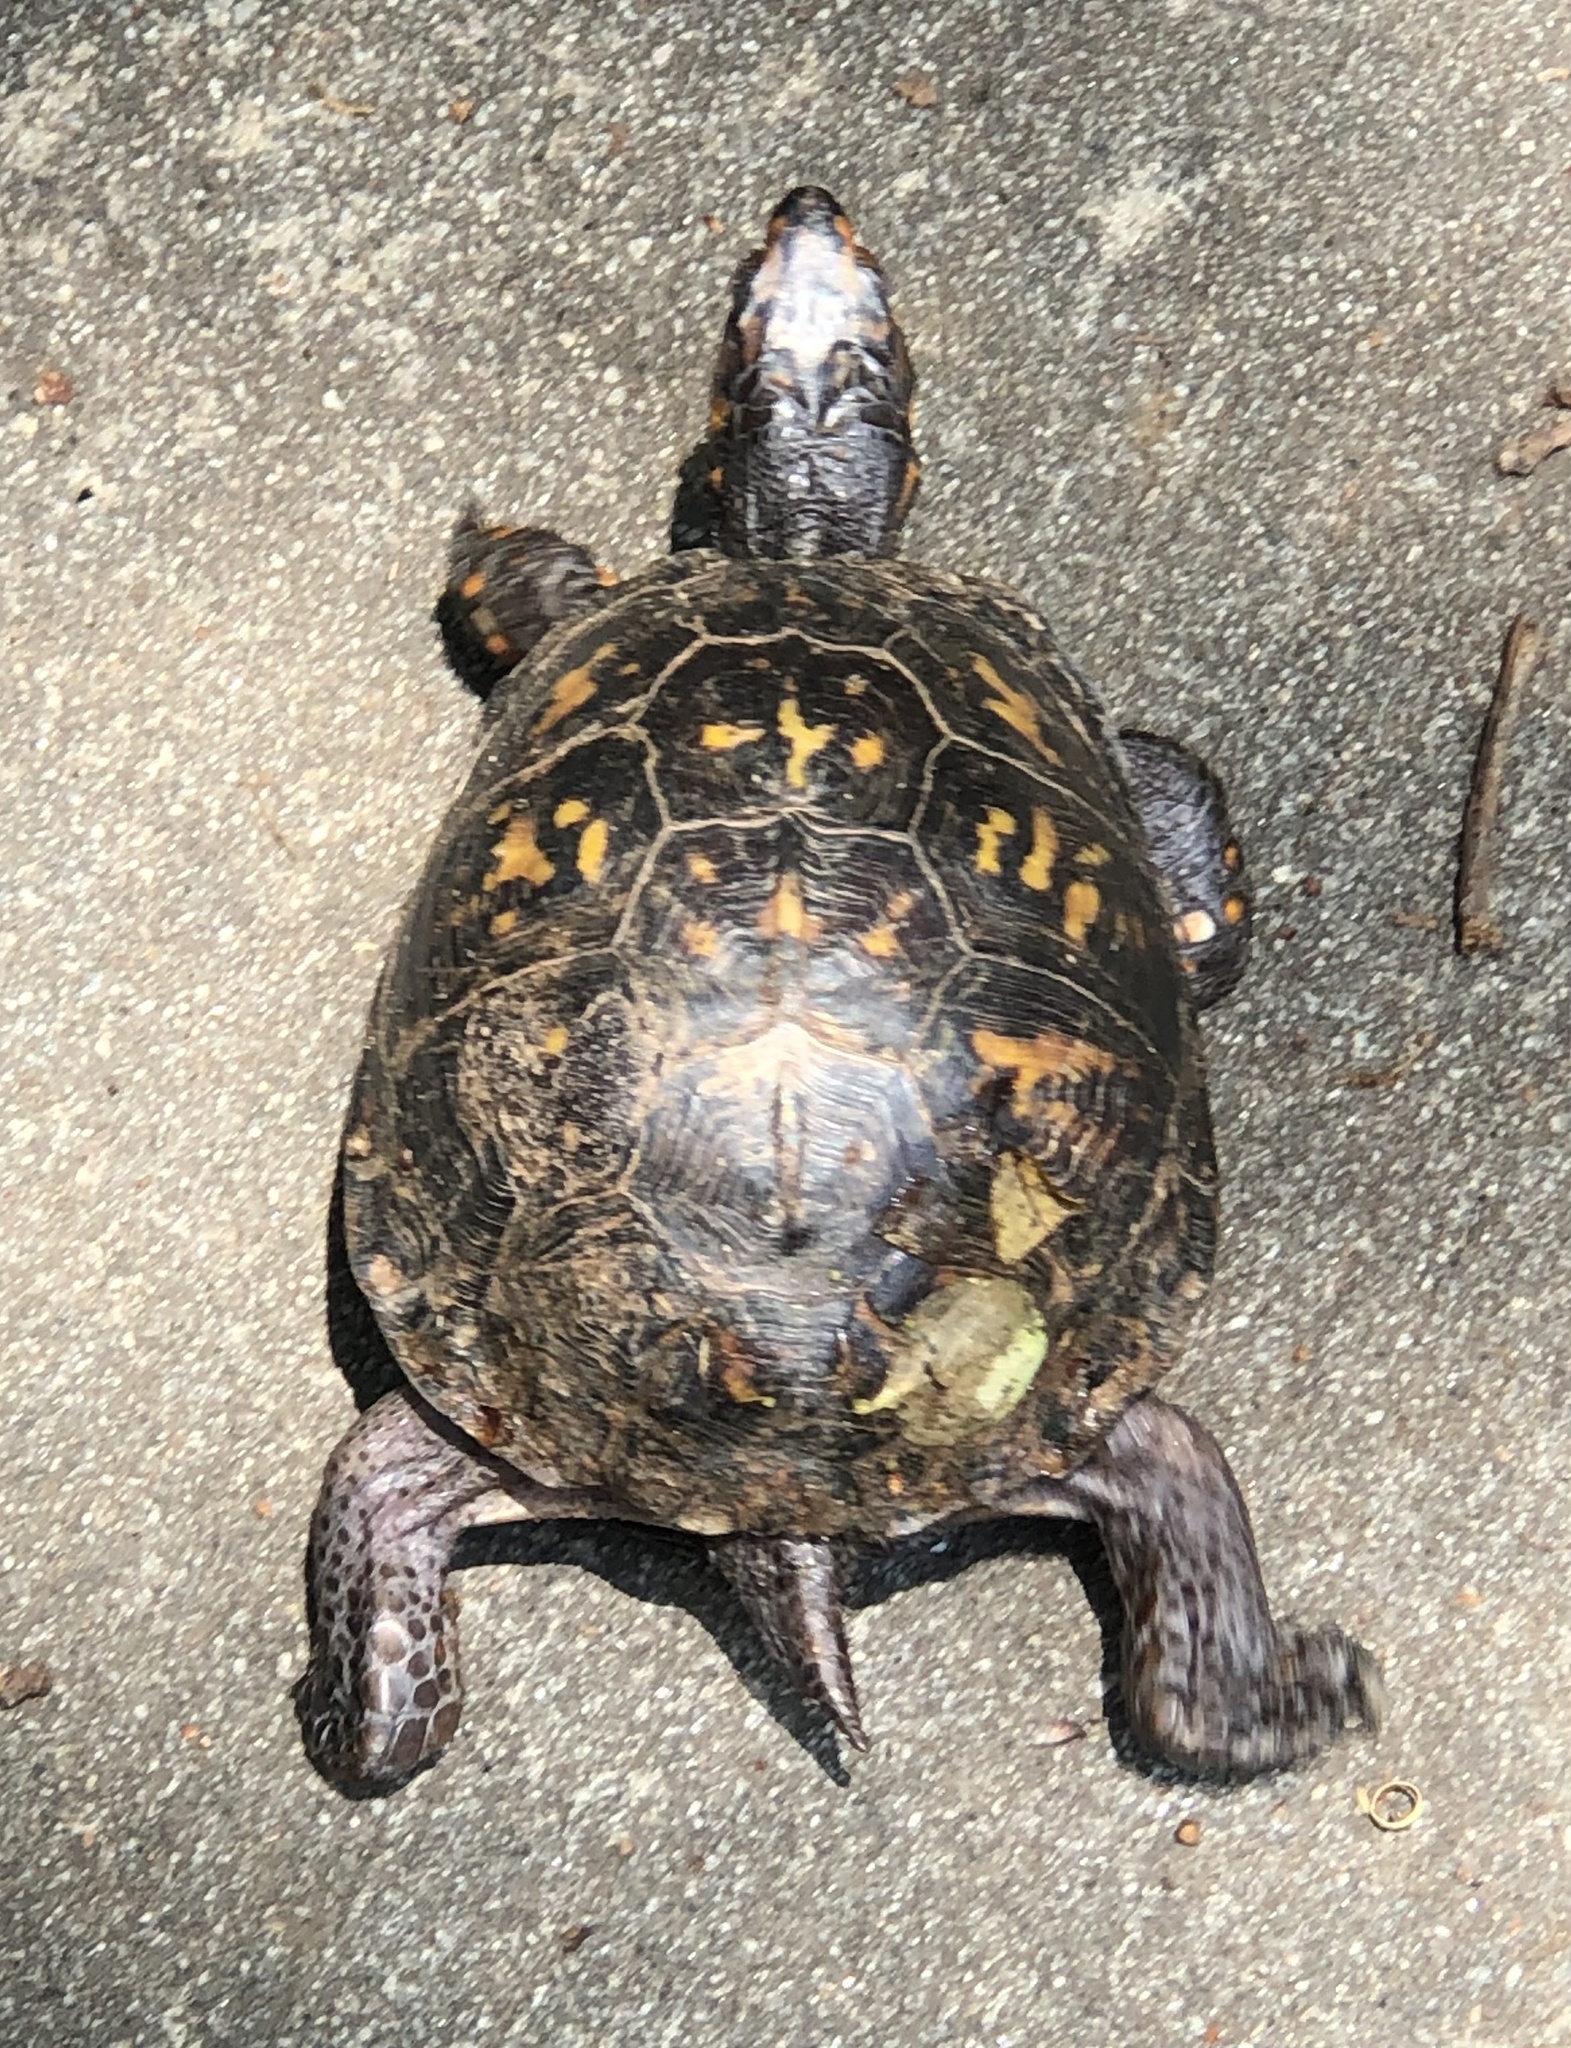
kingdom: Animalia
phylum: Chordata
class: Testudines
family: Emydidae
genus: Terrapene
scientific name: Terrapene carolina
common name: Common box turtle
